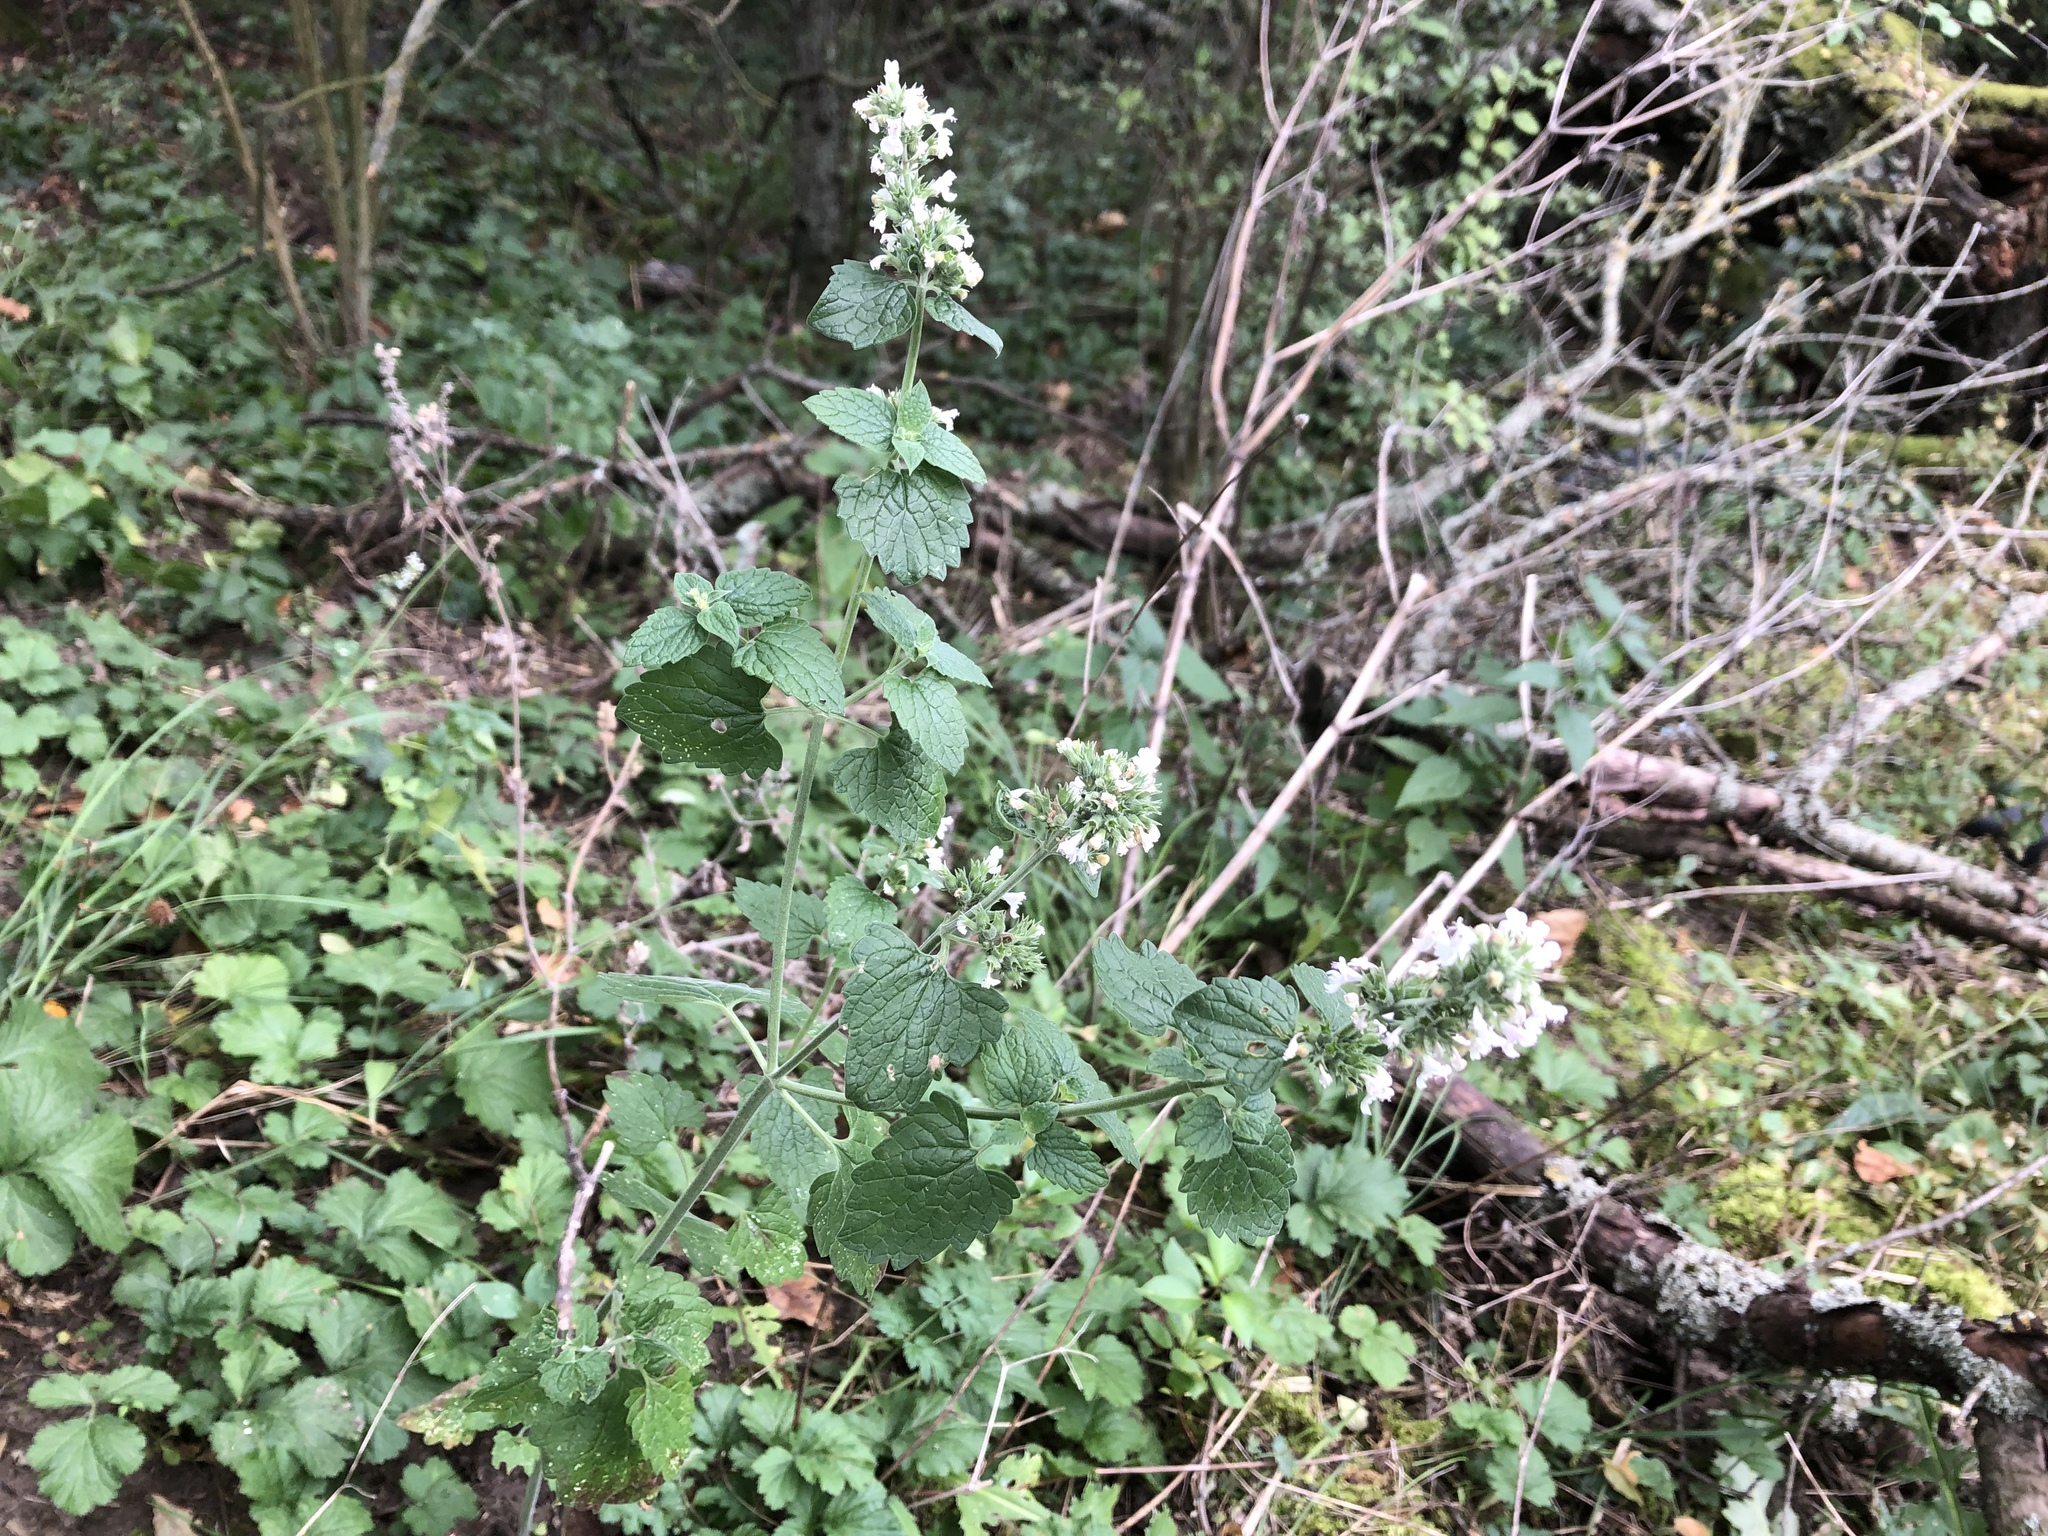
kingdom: Plantae
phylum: Tracheophyta
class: Magnoliopsida
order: Lamiales
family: Lamiaceae
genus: Nepeta
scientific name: Nepeta cataria
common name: Catnip
